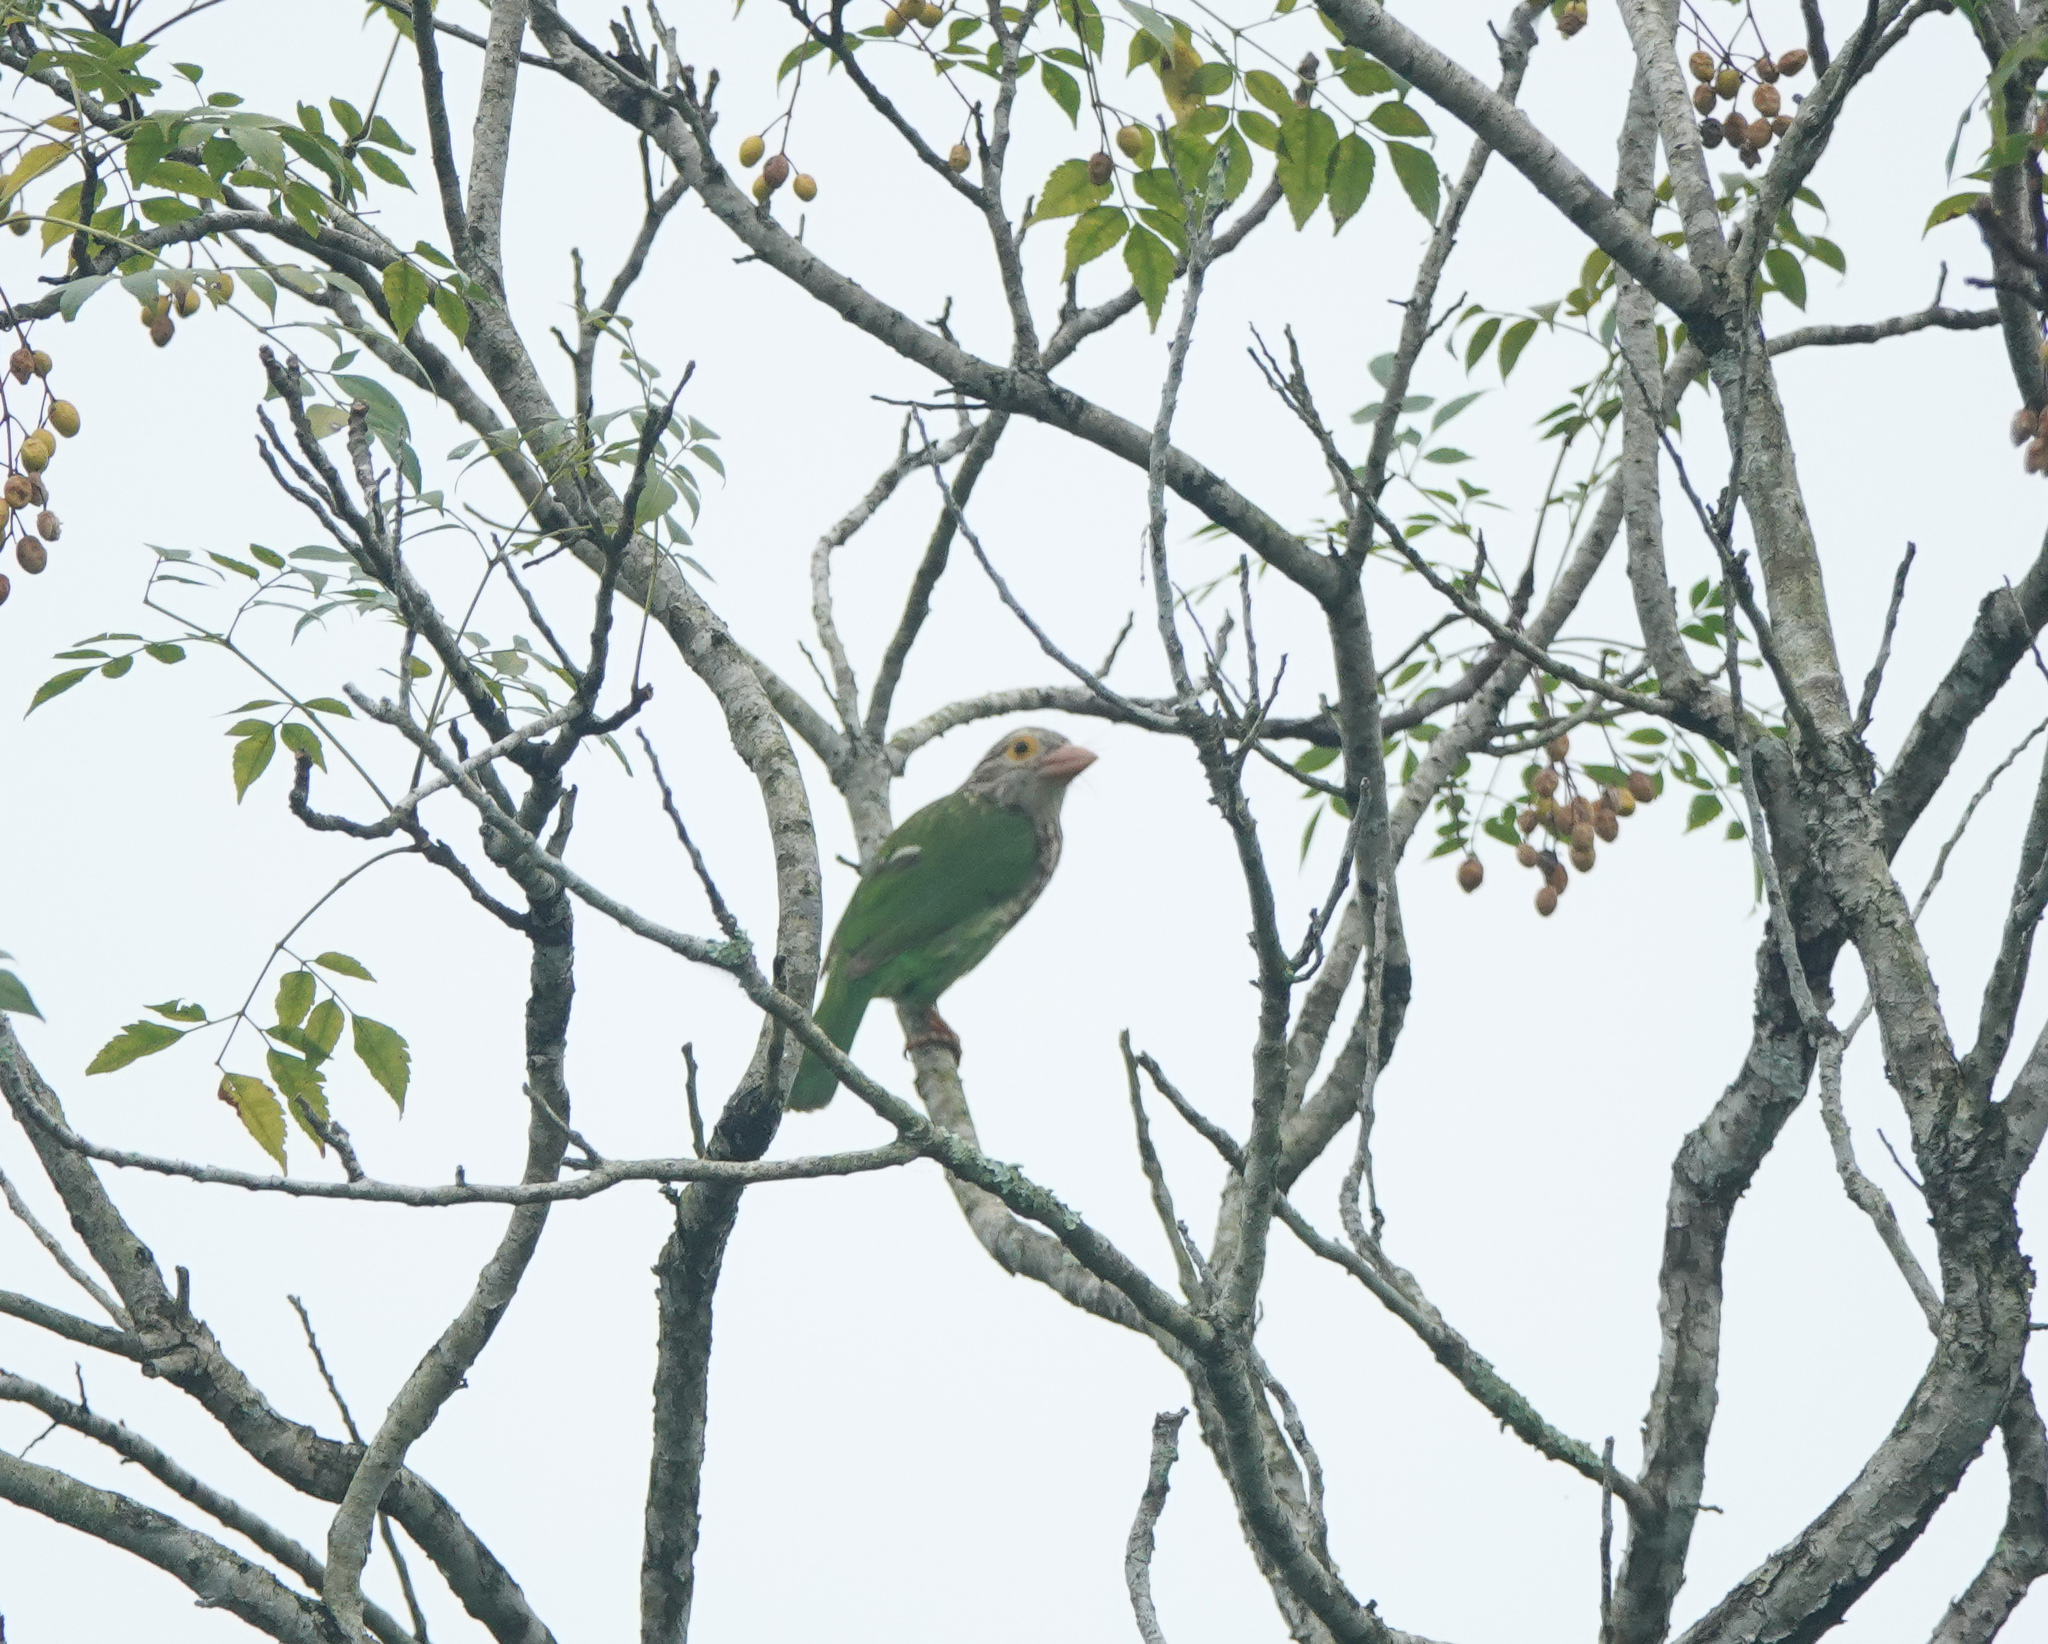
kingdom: Animalia
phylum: Chordata
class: Aves
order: Piciformes
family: Megalaimidae
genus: Psilopogon
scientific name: Psilopogon lineatus
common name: Lineated barbet
